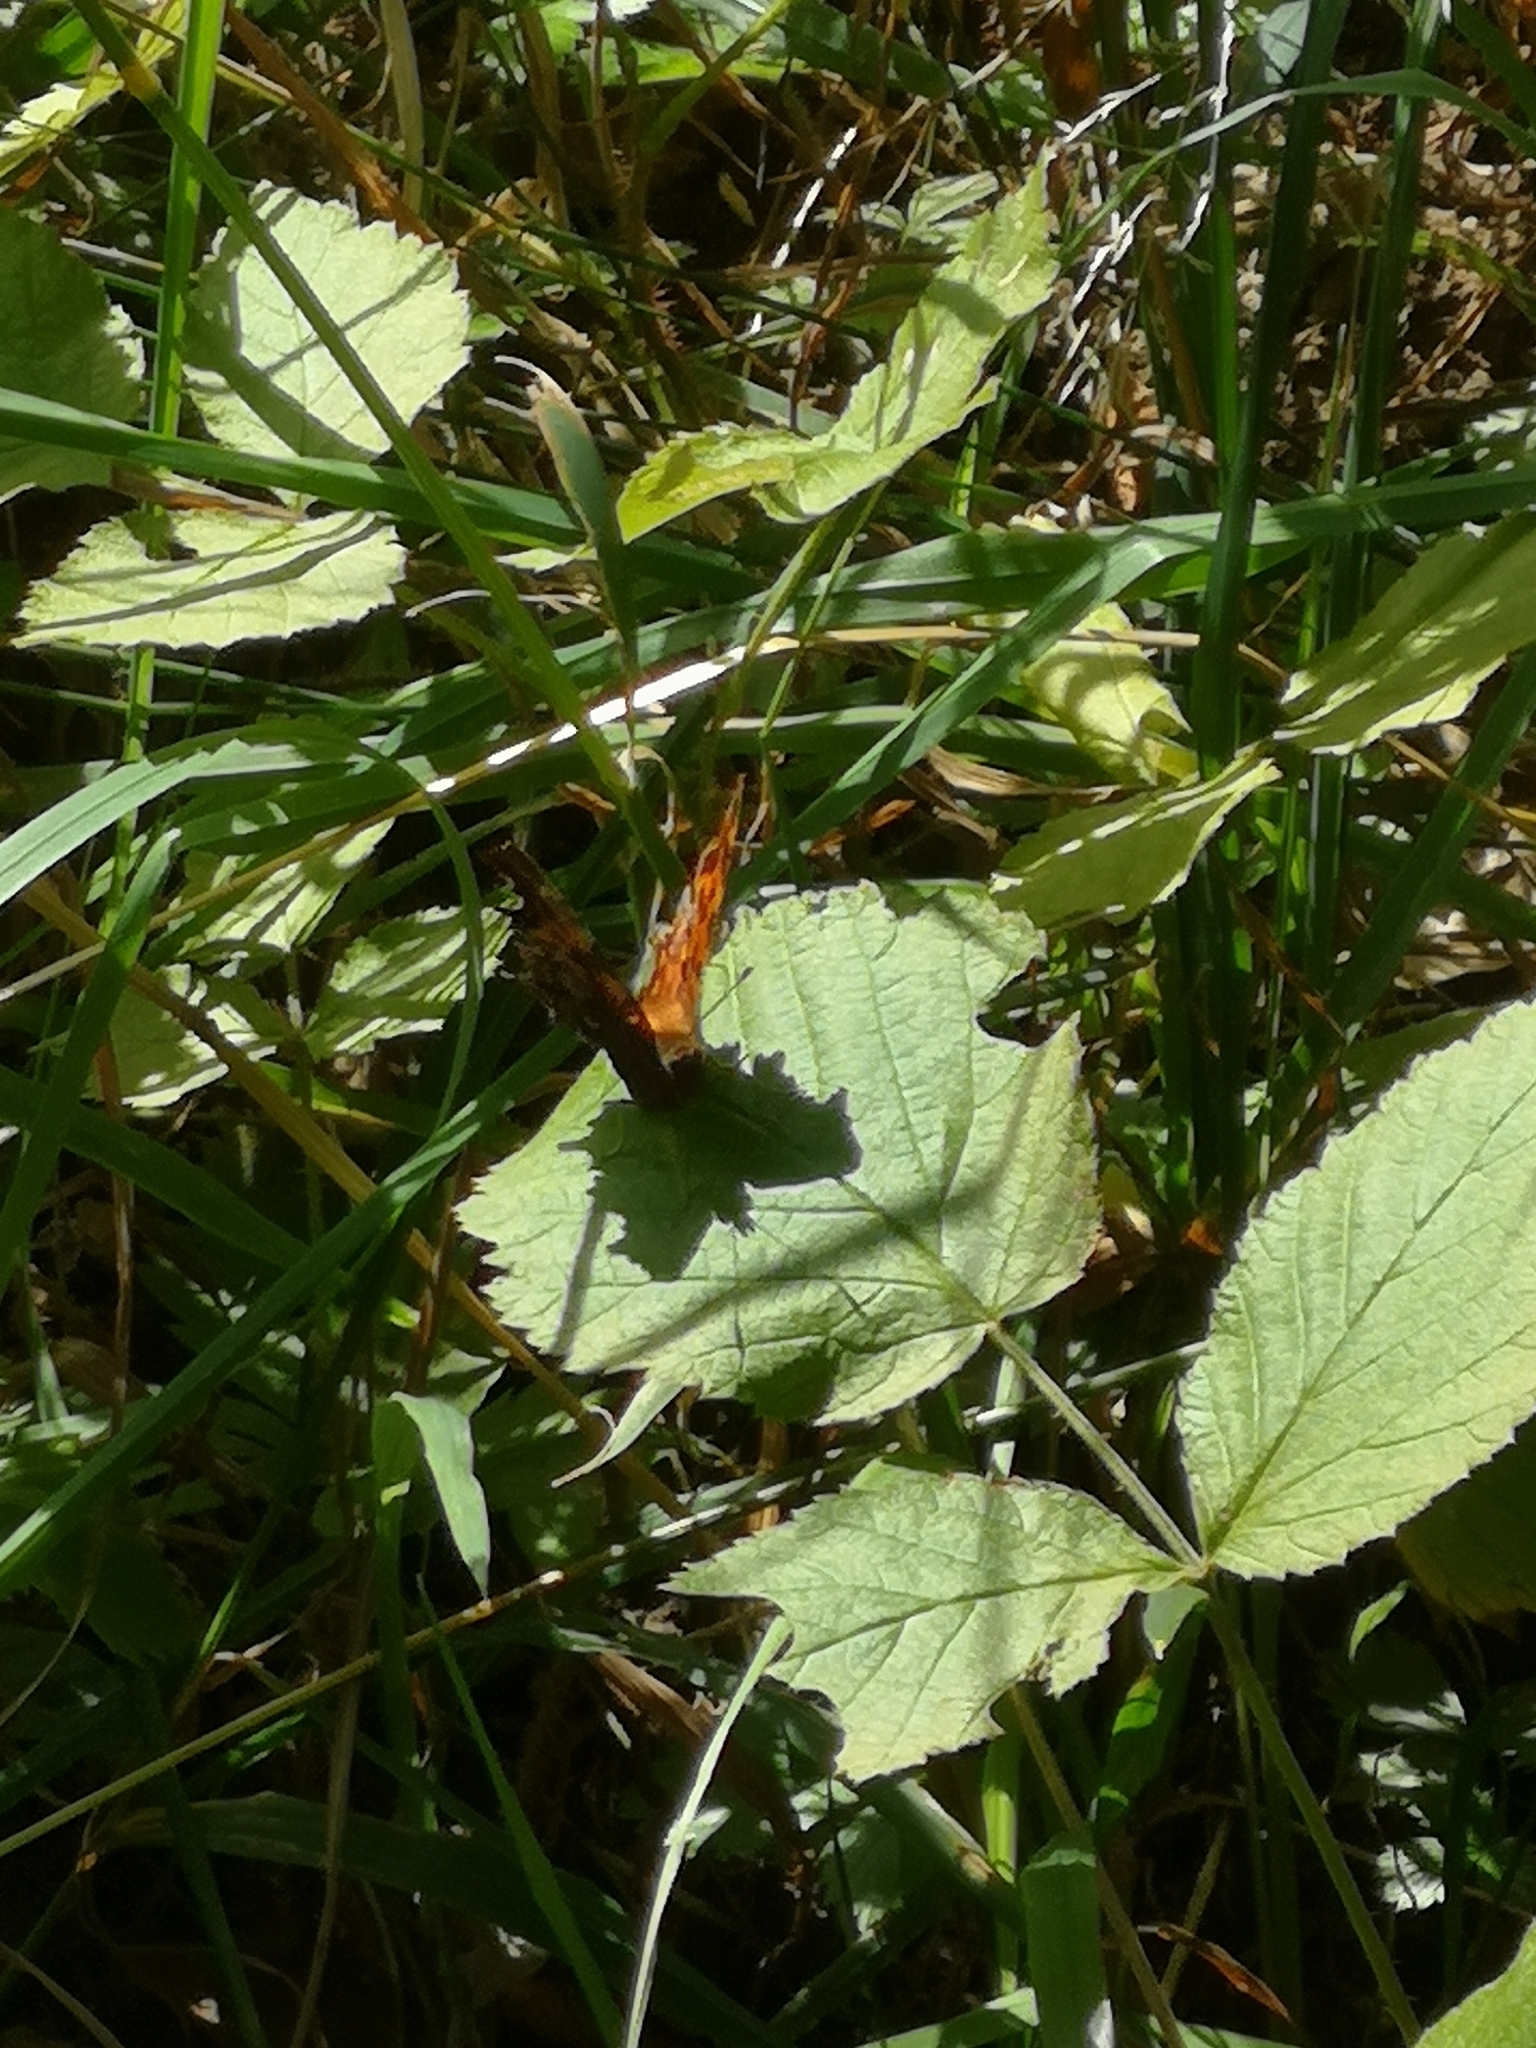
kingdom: Animalia
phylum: Arthropoda
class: Insecta
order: Lepidoptera
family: Nymphalidae
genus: Polygonia
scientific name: Polygonia c-album
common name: Comma
